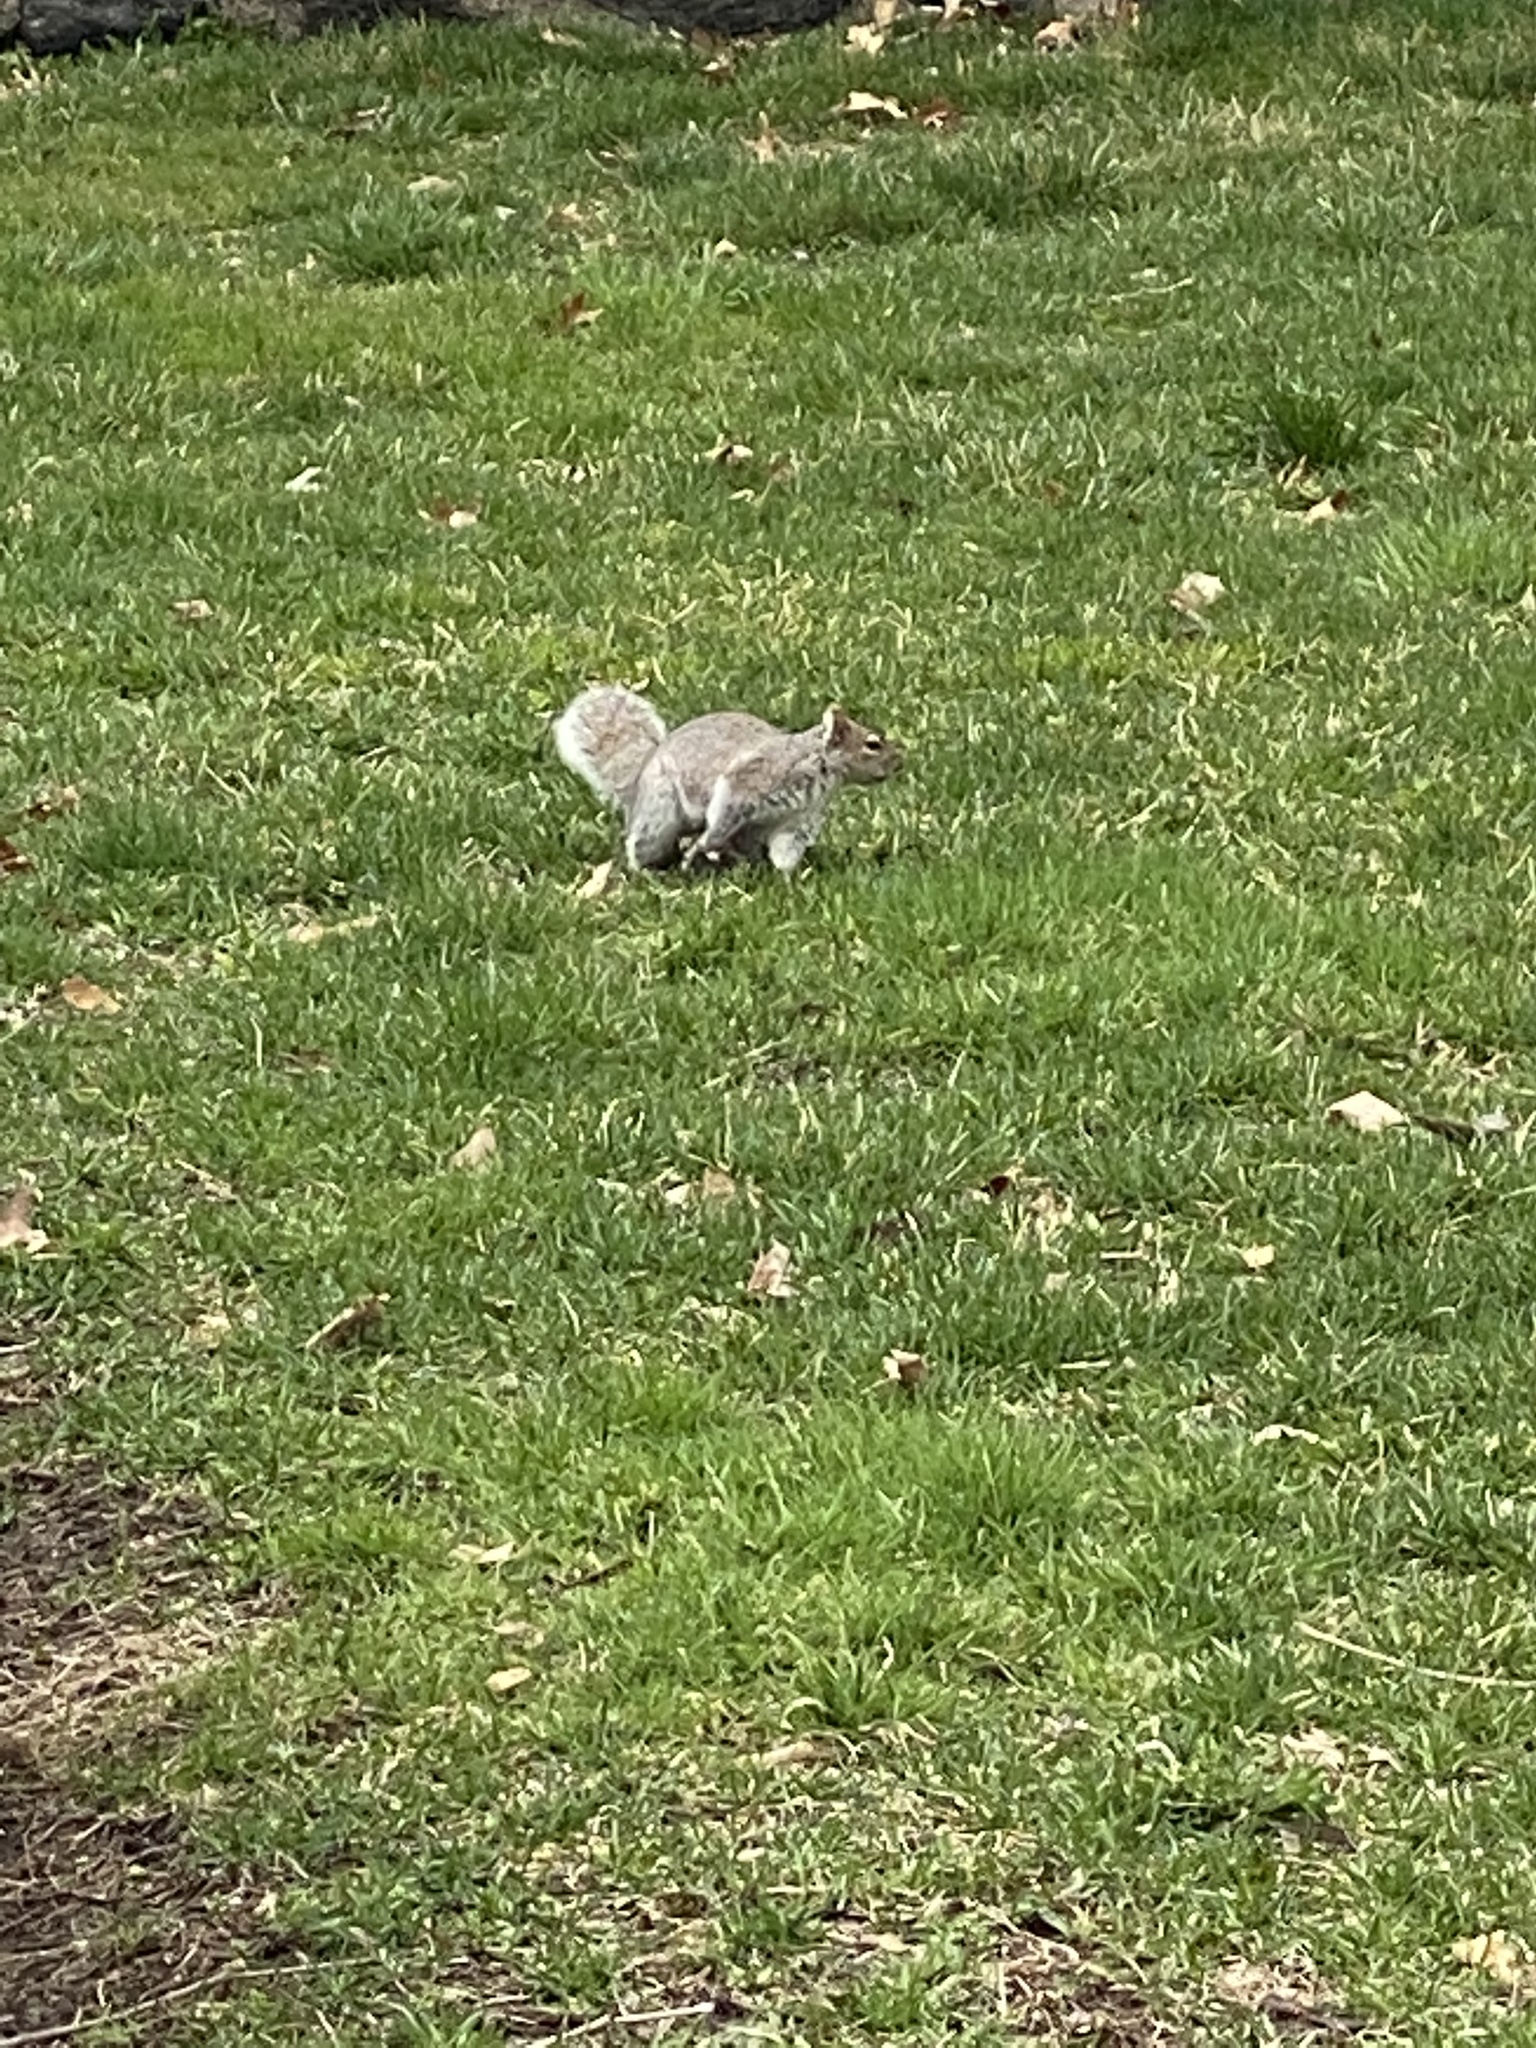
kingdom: Animalia
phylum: Chordata
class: Mammalia
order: Rodentia
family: Sciuridae
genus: Sciurus
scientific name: Sciurus carolinensis
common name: Eastern gray squirrel
